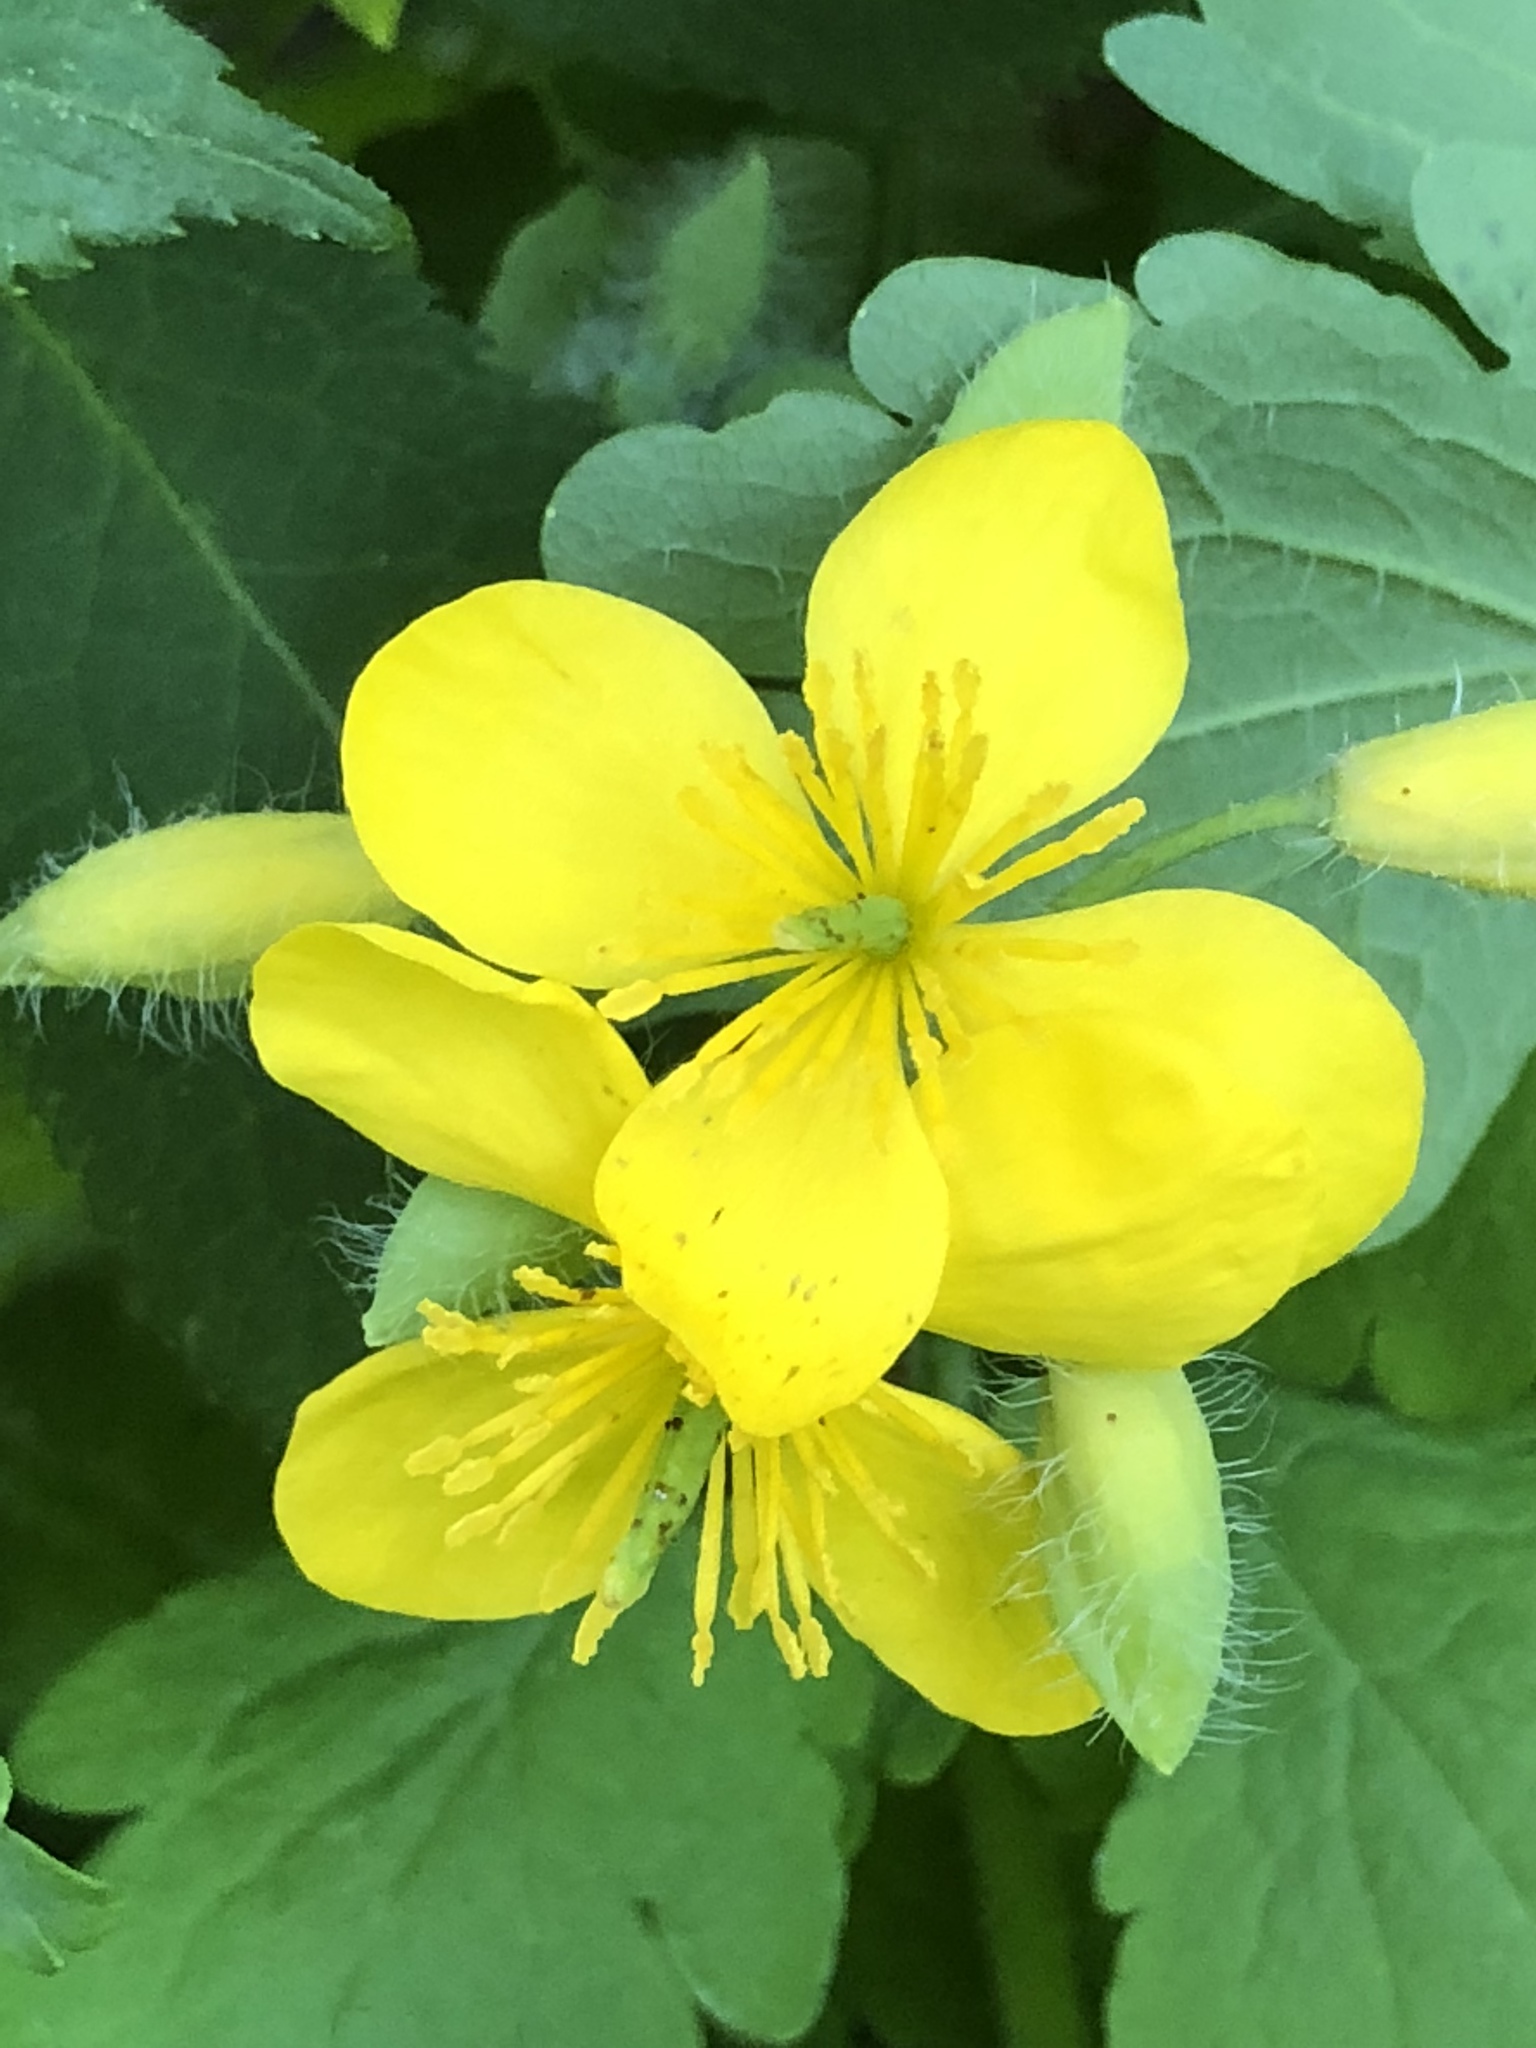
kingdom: Plantae
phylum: Tracheophyta
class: Magnoliopsida
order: Ranunculales
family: Papaveraceae
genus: Chelidonium
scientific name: Chelidonium majus
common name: Greater celandine
